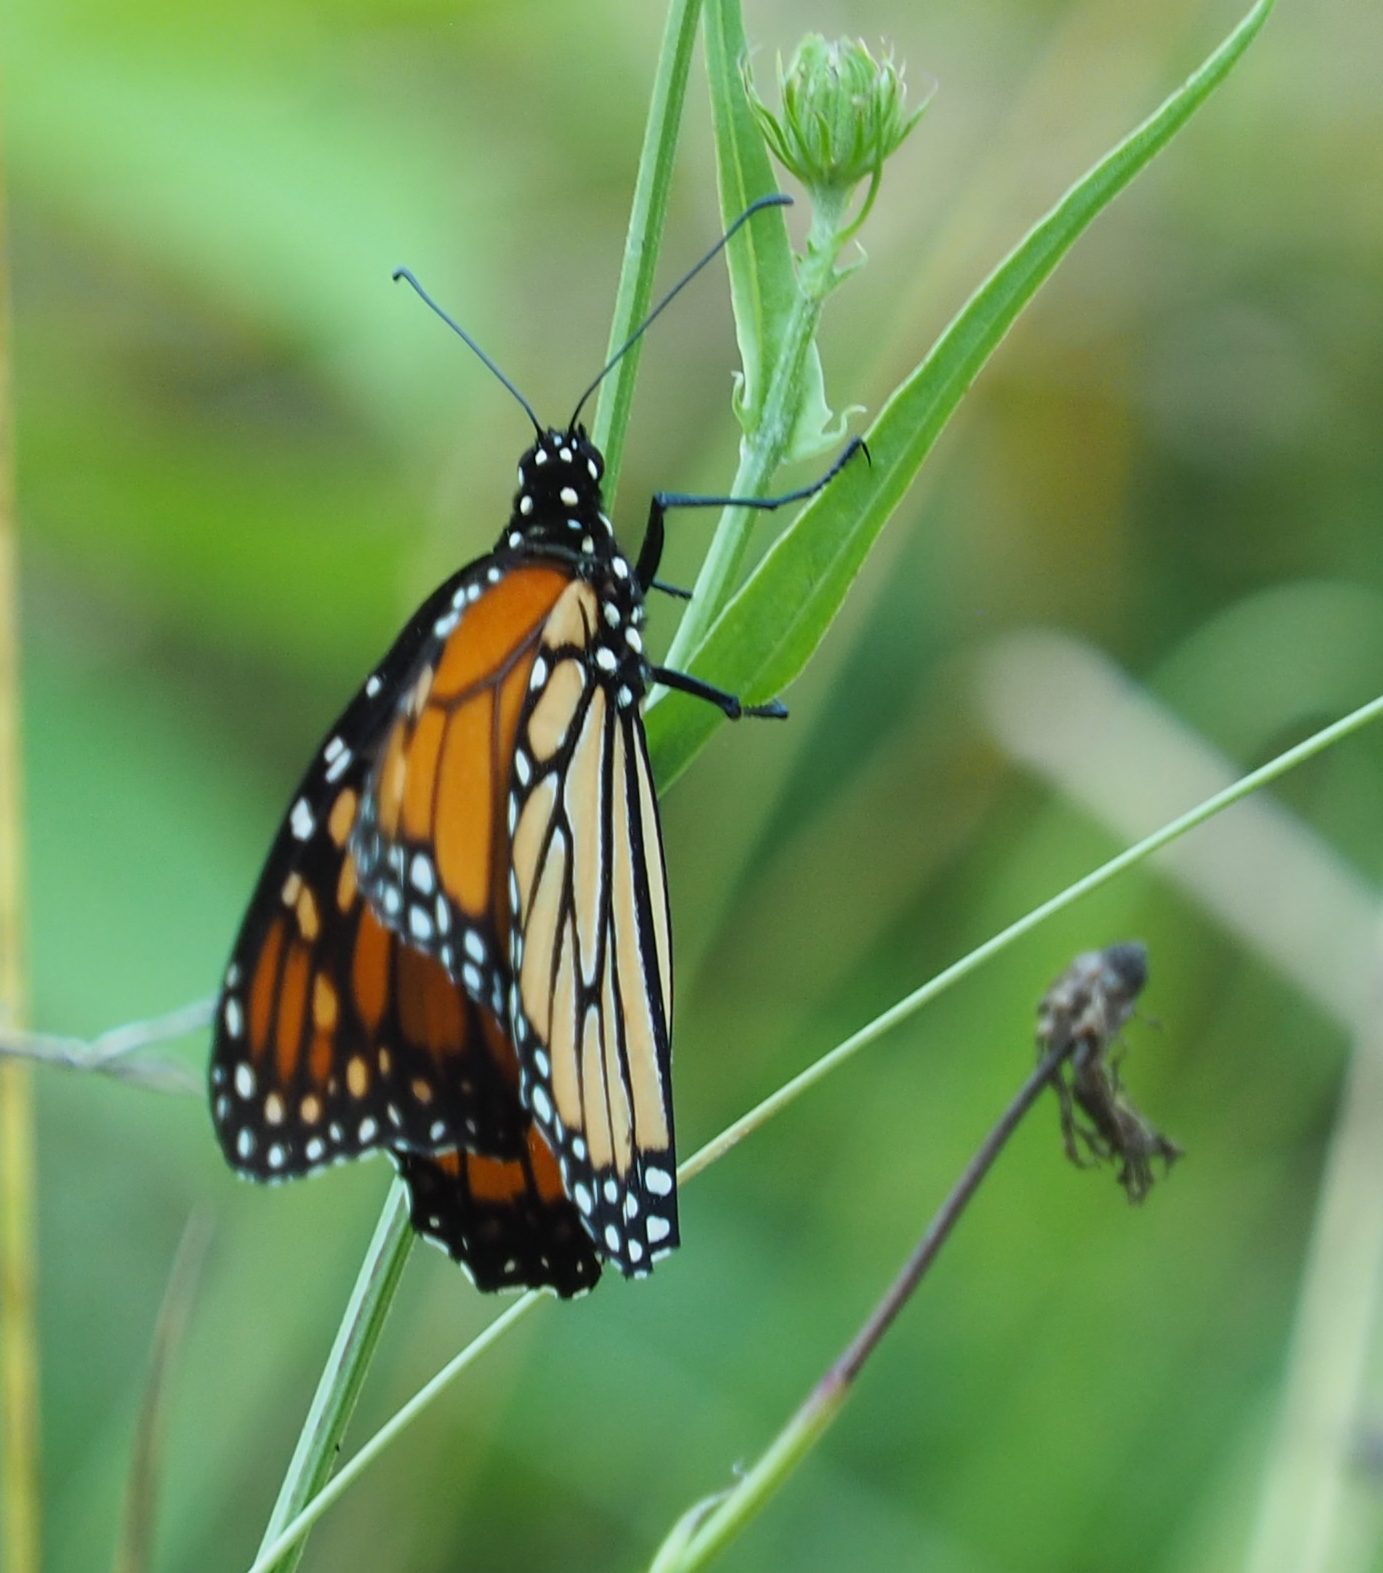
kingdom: Animalia
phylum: Arthropoda
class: Insecta
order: Lepidoptera
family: Nymphalidae
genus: Danaus
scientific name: Danaus plexippus
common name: Monarch
